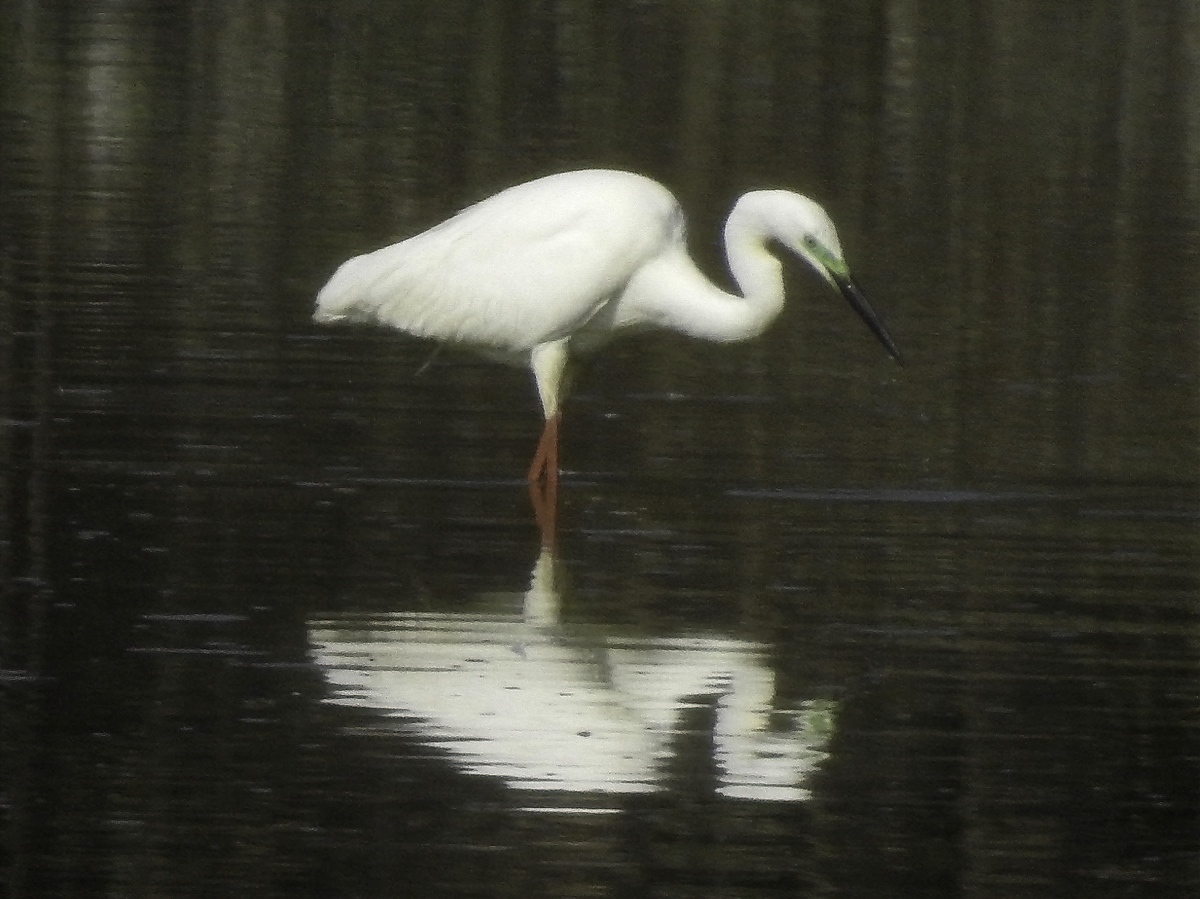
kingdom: Animalia
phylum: Chordata
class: Aves
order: Pelecaniformes
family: Ardeidae
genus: Ardea
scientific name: Ardea alba
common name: Great egret
